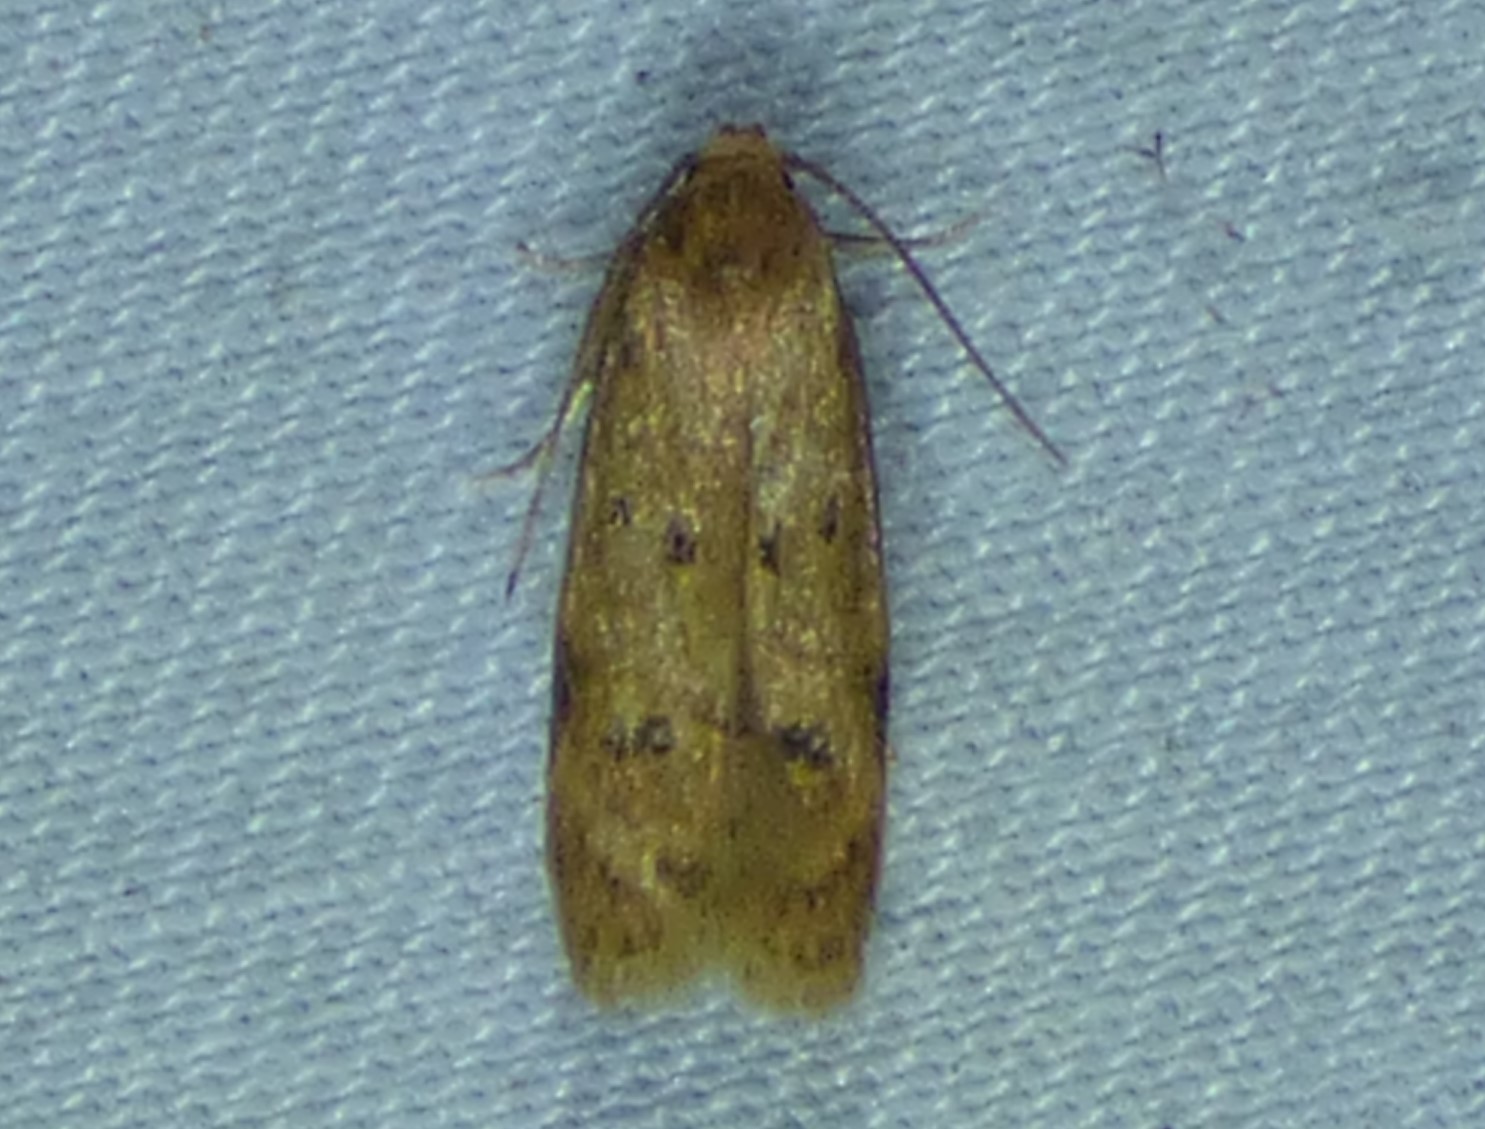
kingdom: Animalia
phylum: Arthropoda
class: Insecta
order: Lepidoptera
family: Autostichidae
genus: Gerdana
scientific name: Gerdana caritella
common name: Gerdana moth
